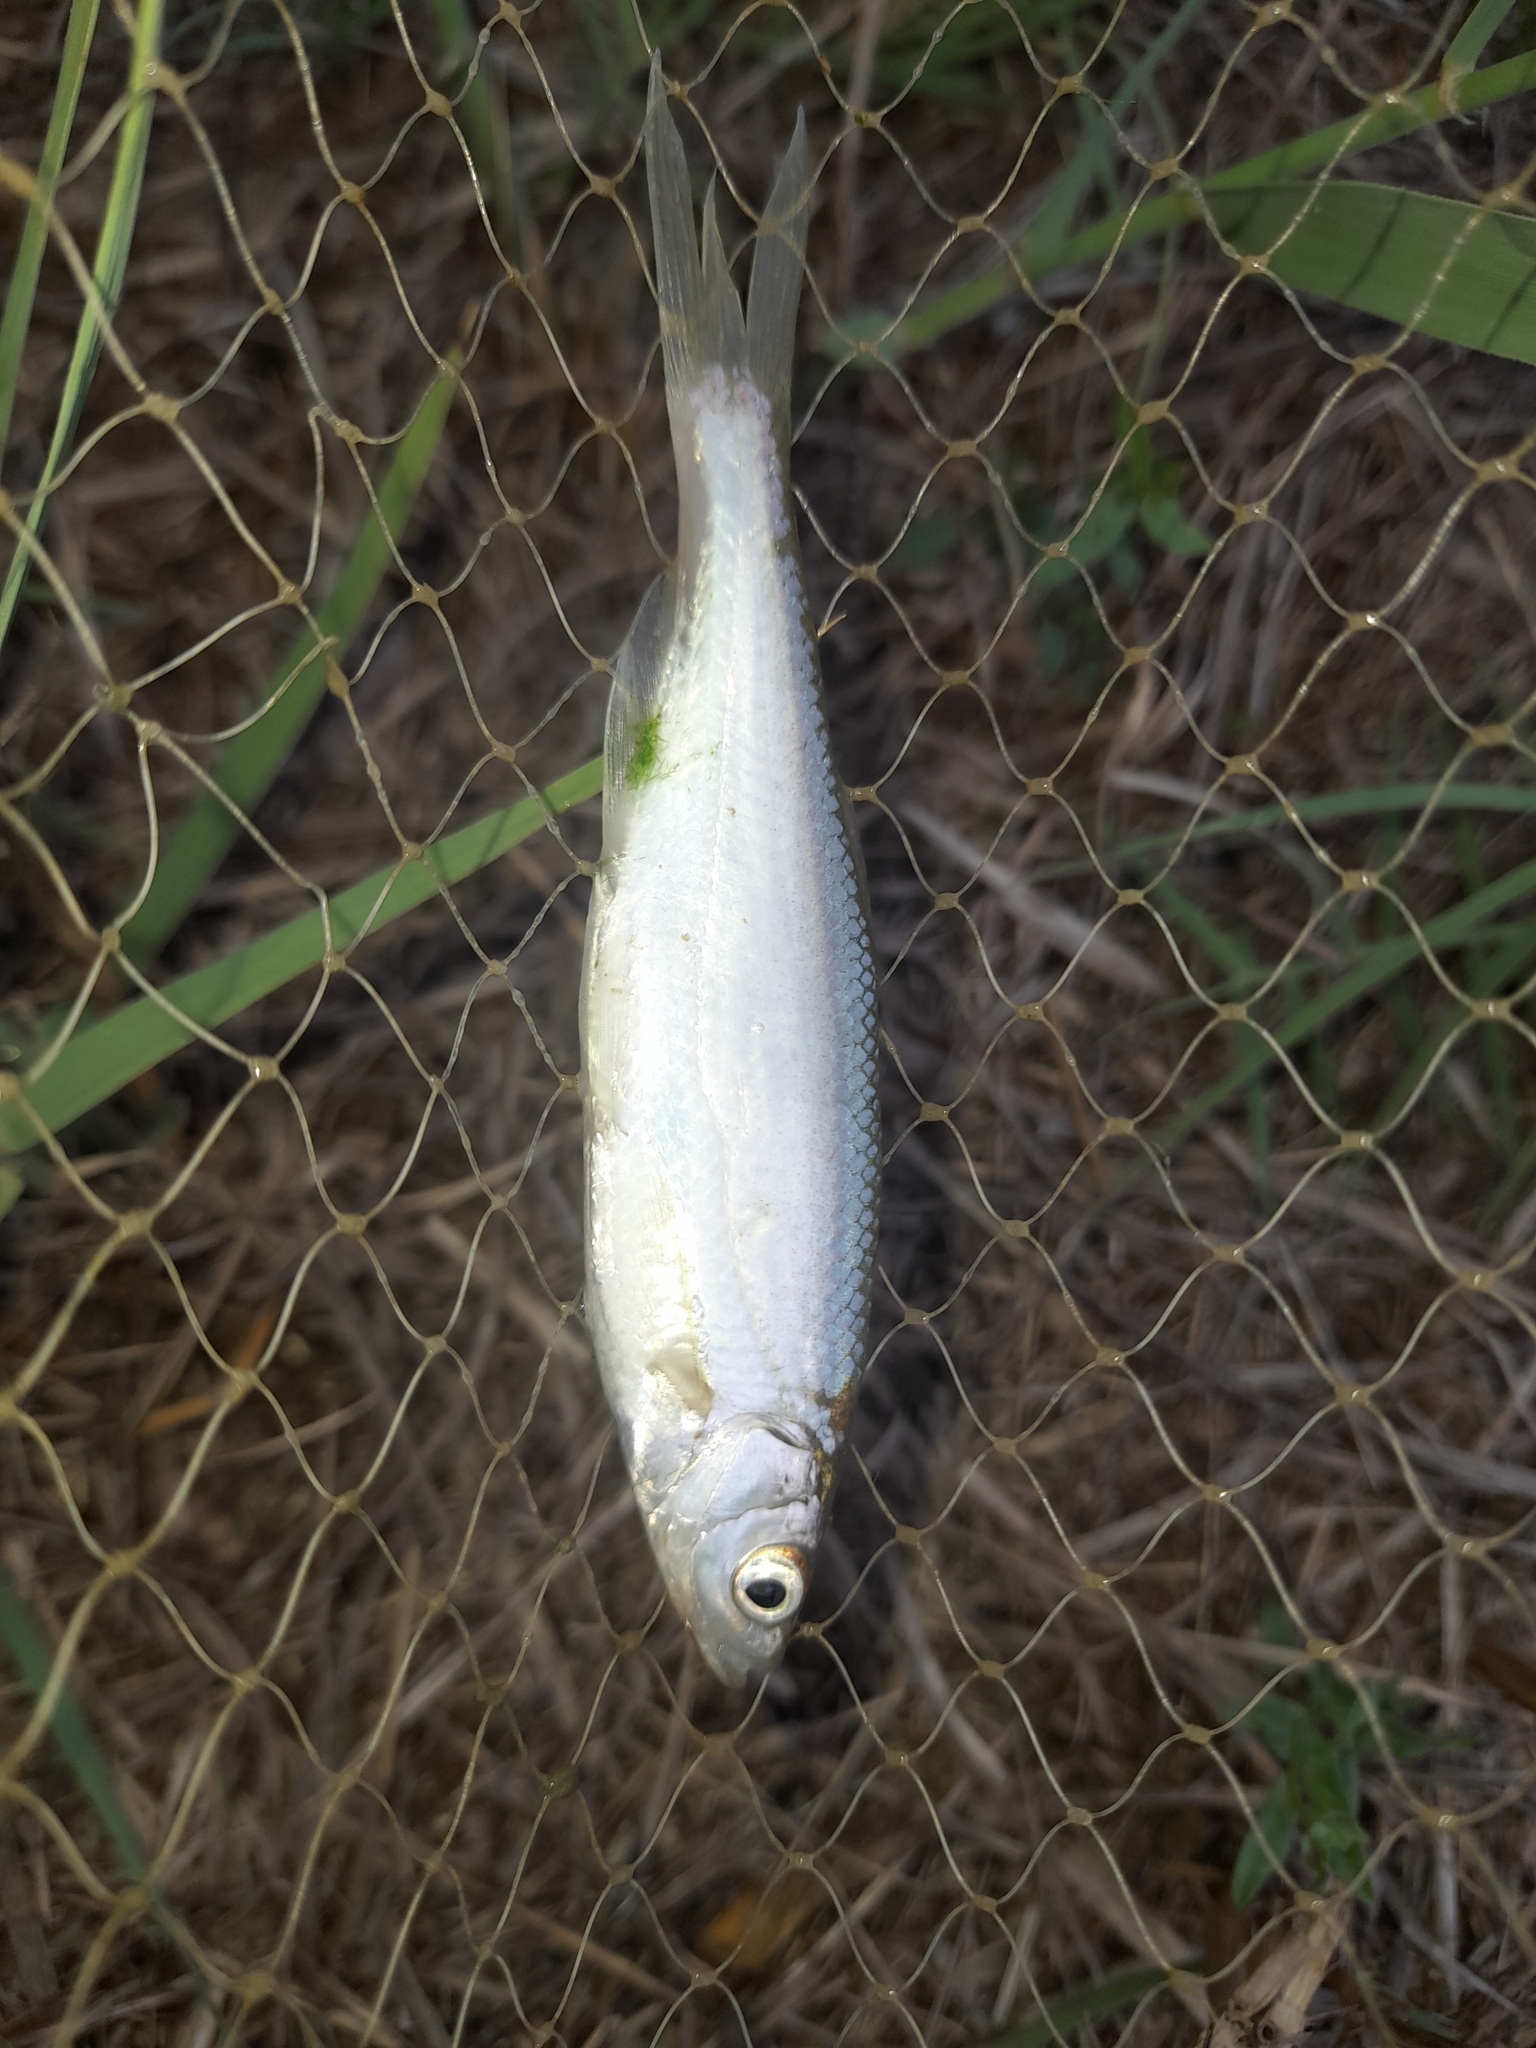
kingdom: Animalia
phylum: Chordata
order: Cypriniformes
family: Cyprinidae
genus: Alburnus
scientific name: Alburnus arborella
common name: Alborella
